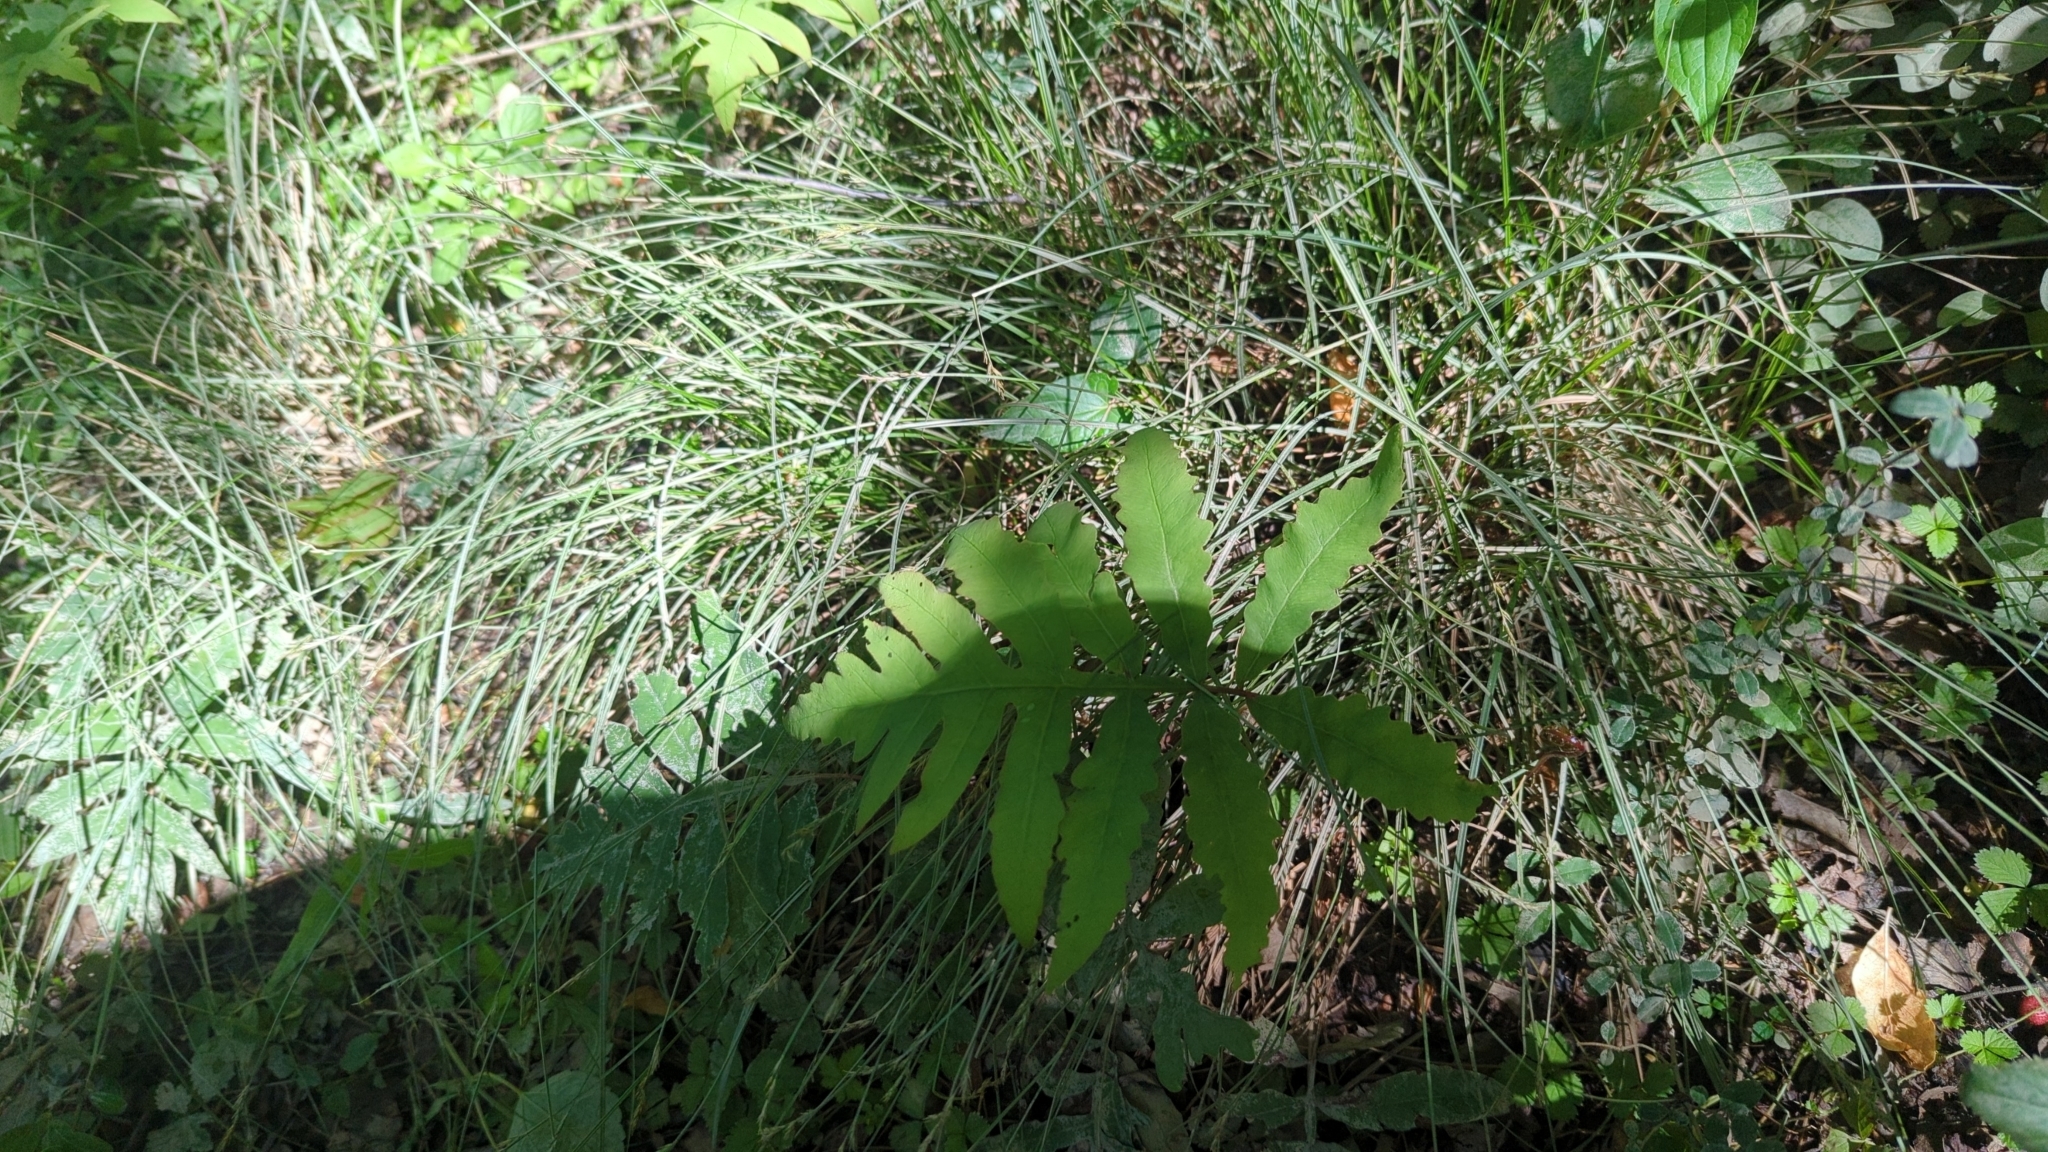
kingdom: Plantae
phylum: Tracheophyta
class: Polypodiopsida
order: Polypodiales
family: Onocleaceae
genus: Onoclea
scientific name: Onoclea sensibilis
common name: Sensitive fern
